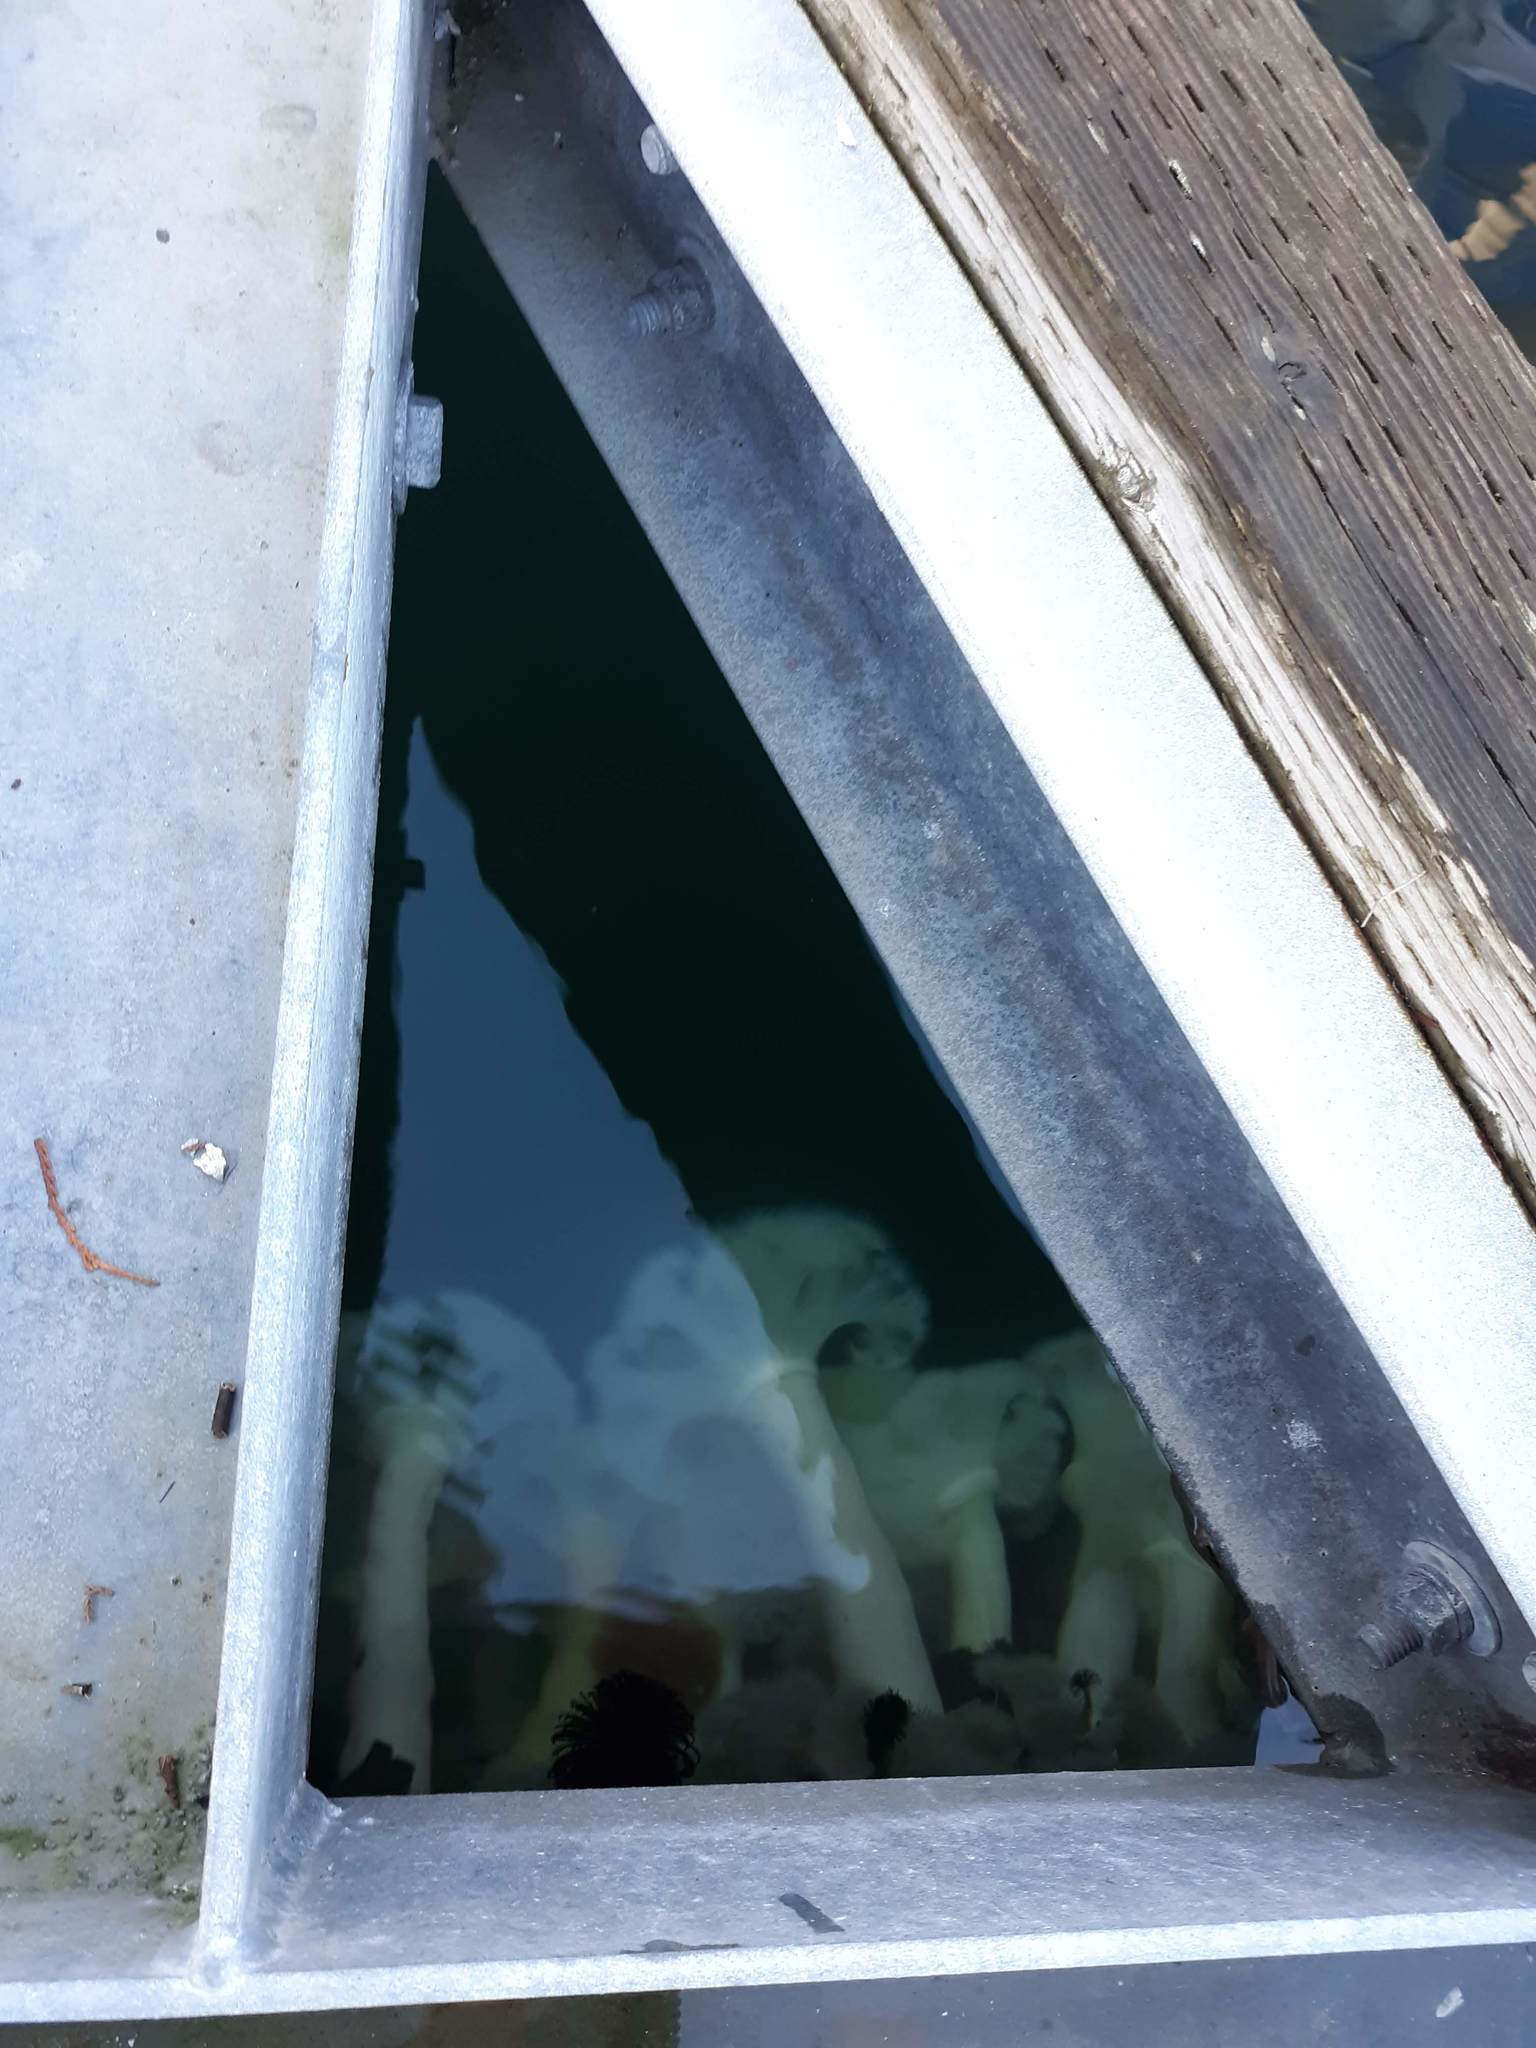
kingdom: Animalia
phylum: Cnidaria
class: Anthozoa
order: Actiniaria
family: Metridiidae
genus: Metridium
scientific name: Metridium farcimen
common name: Gigantic anemone
